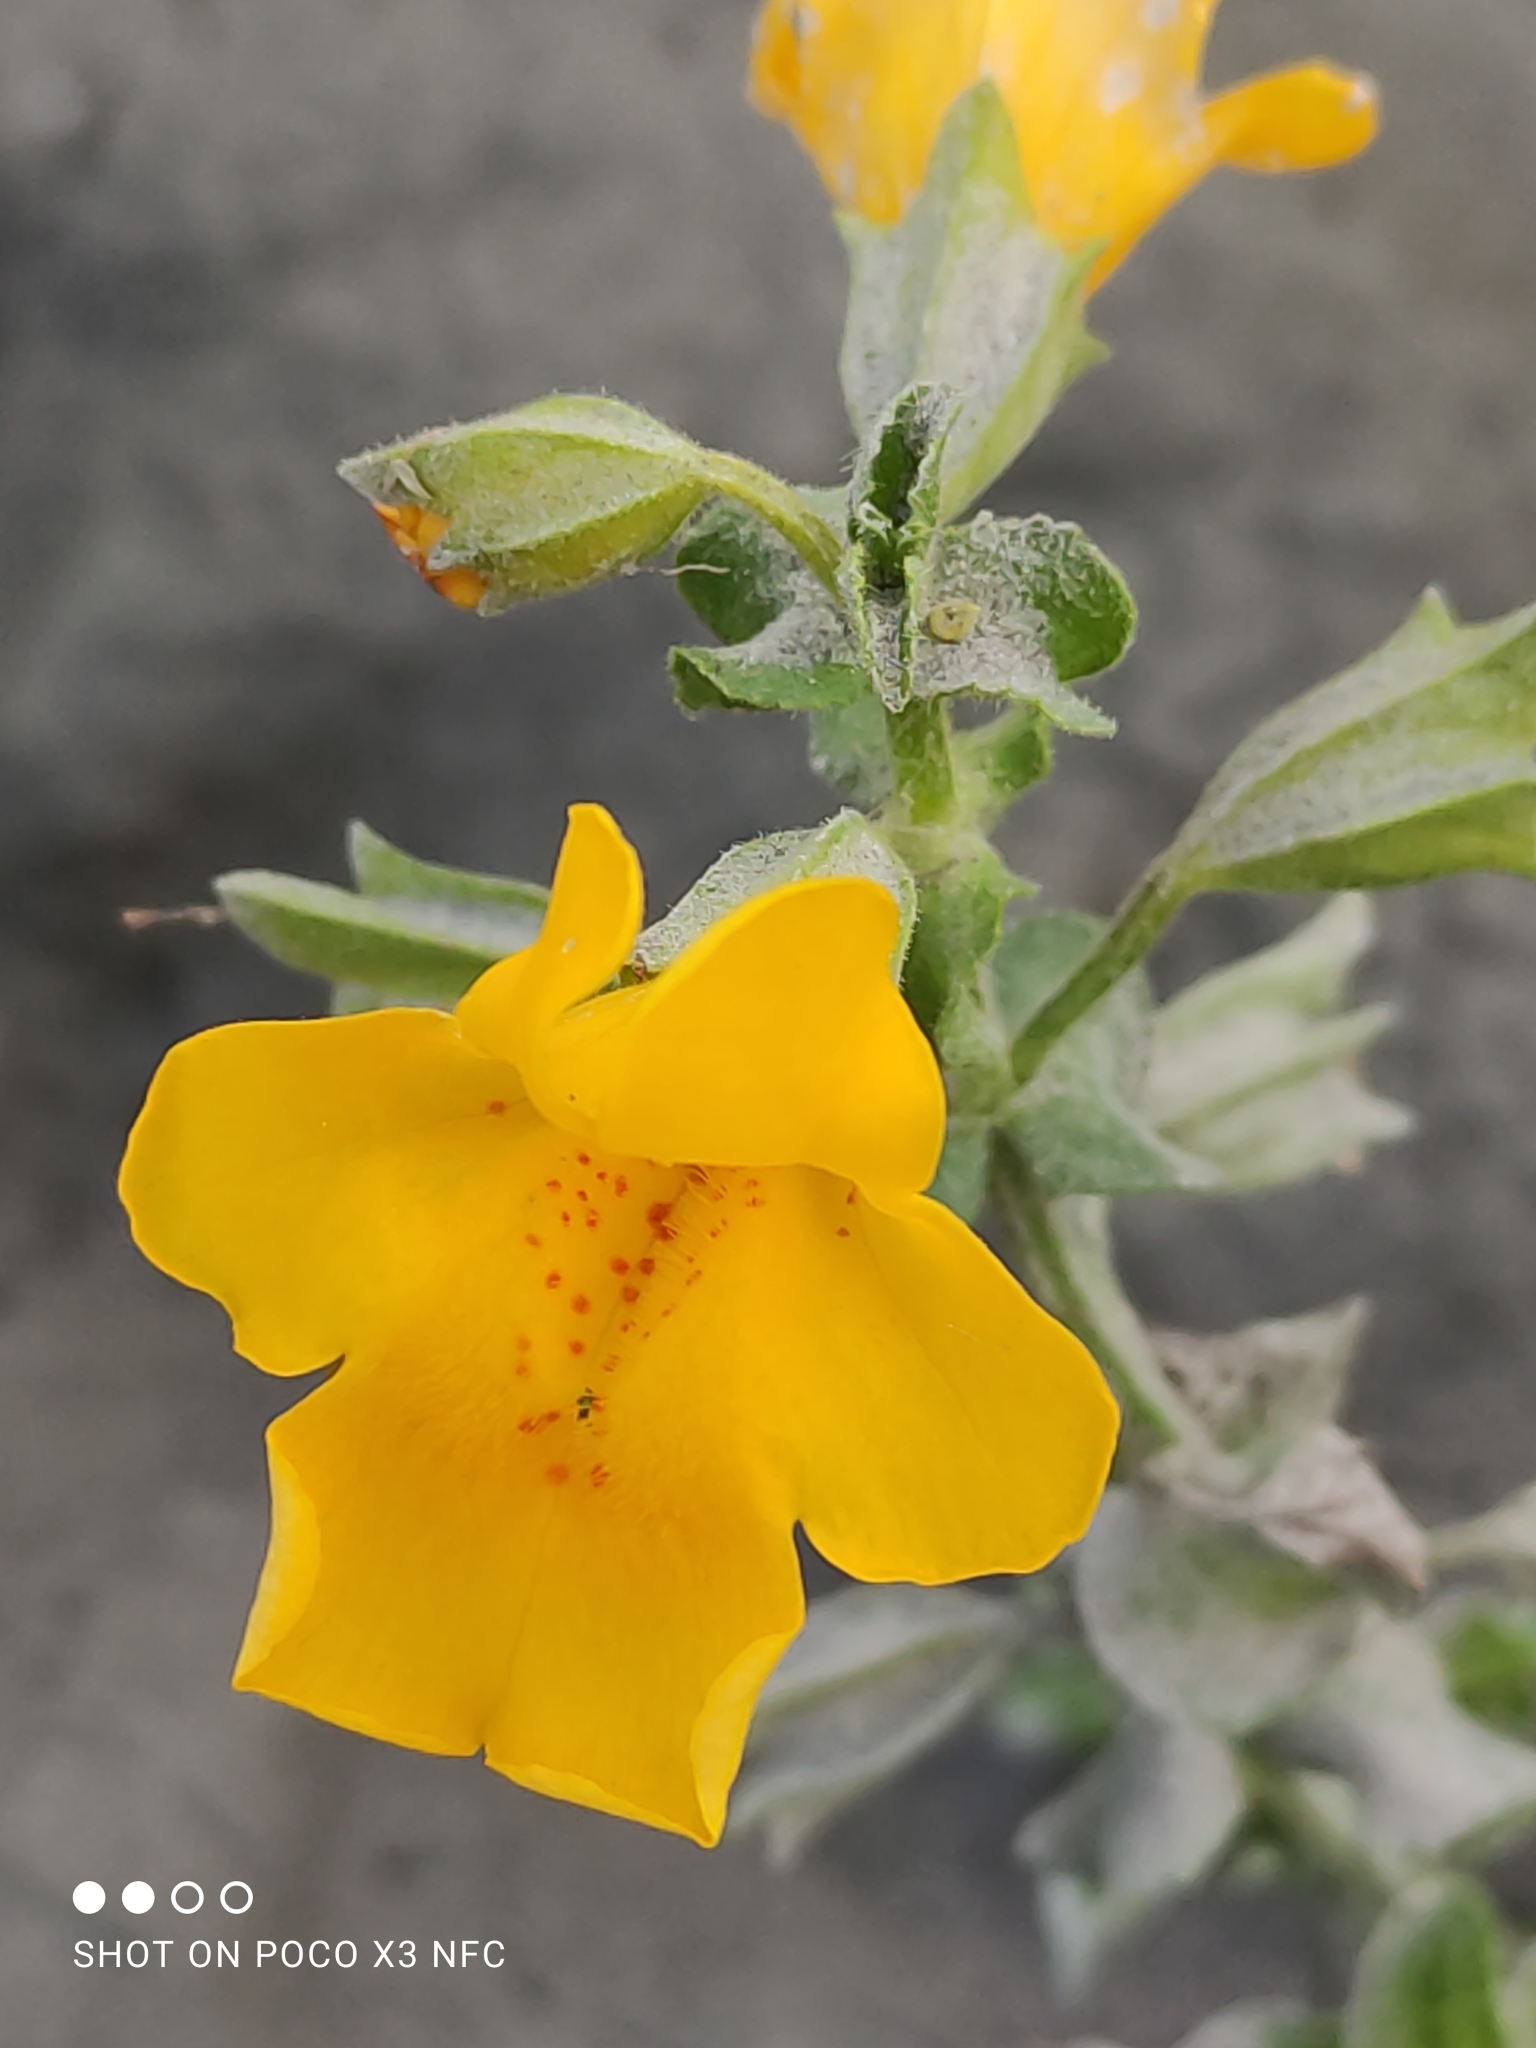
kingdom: Plantae
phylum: Tracheophyta
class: Magnoliopsida
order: Lamiales
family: Phrymaceae
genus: Erythranthe
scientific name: Erythranthe guttata
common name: Monkeyflower
